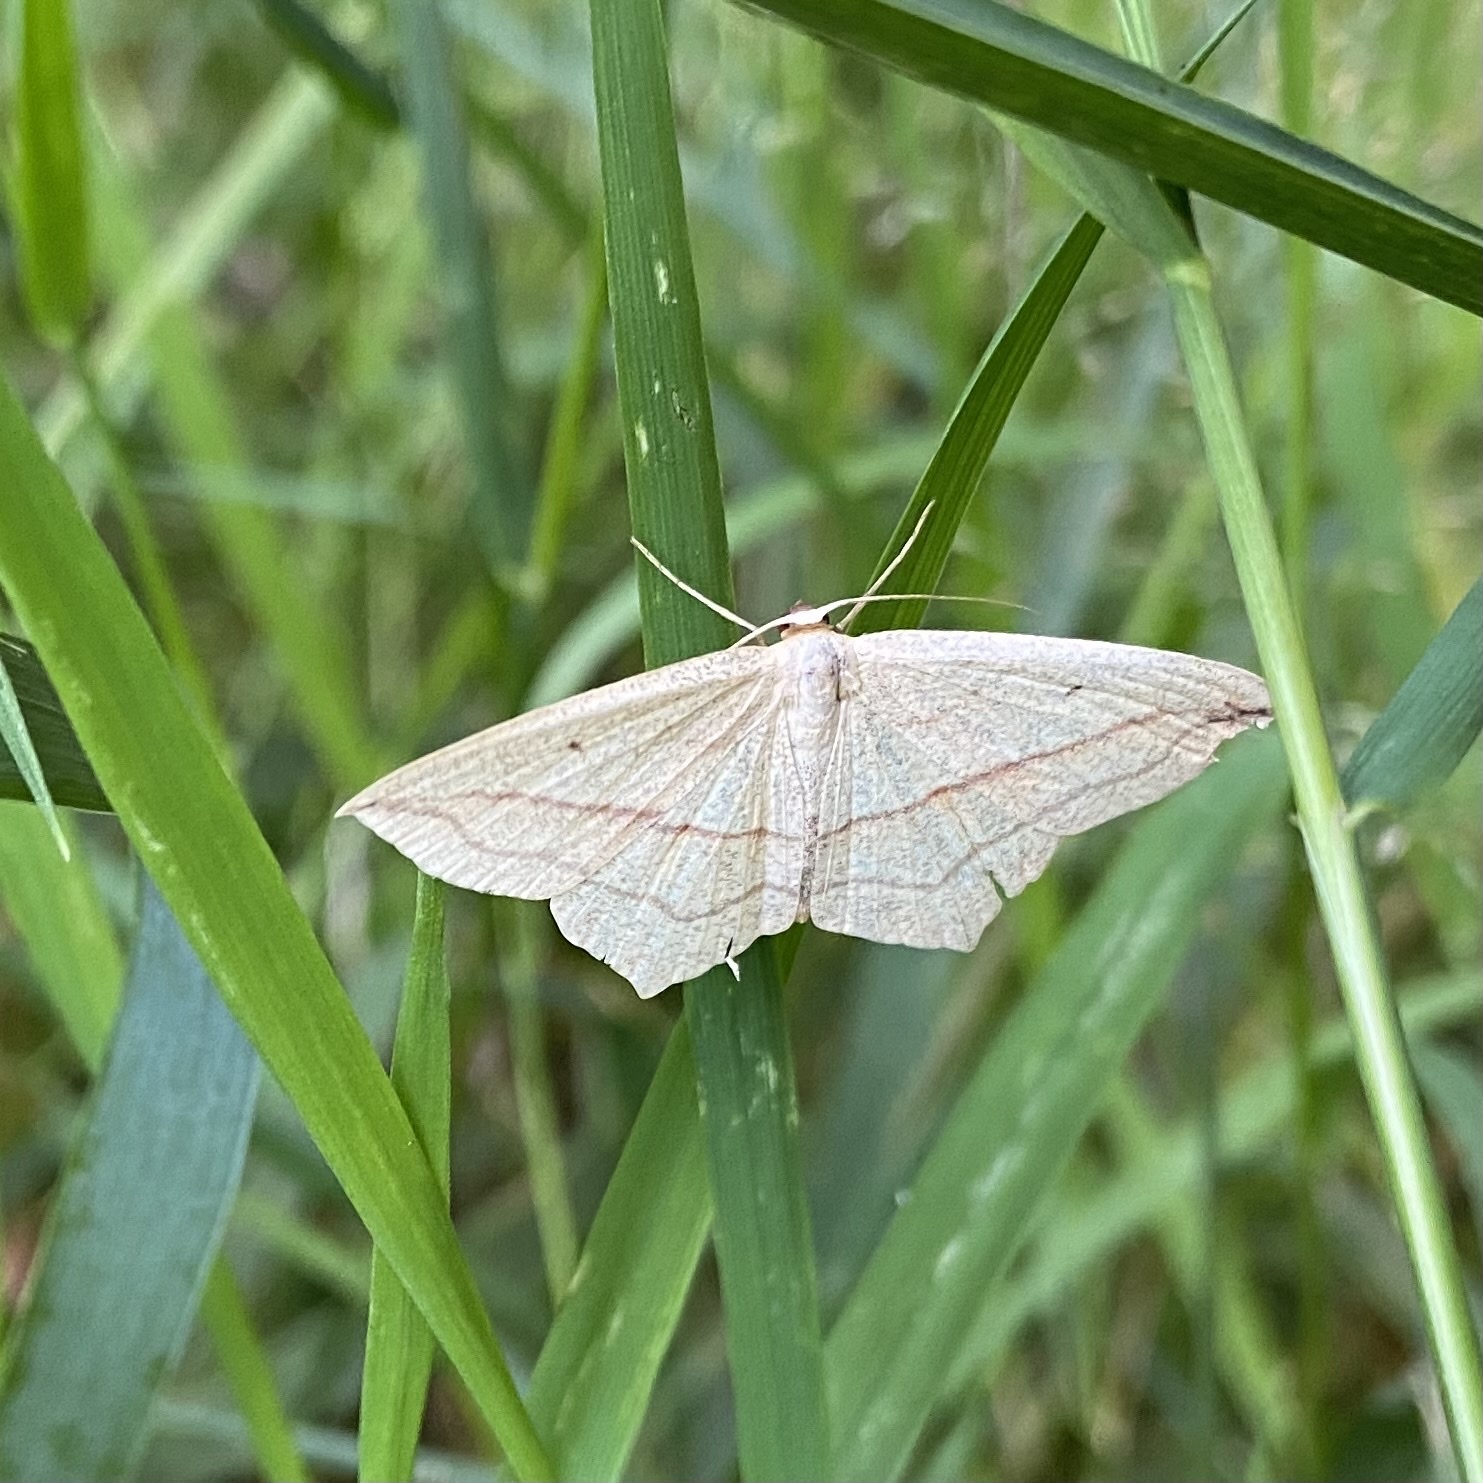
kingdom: Animalia
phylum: Arthropoda
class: Insecta
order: Lepidoptera
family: Geometridae
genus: Timandra
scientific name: Timandra comae
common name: Blood-vein
